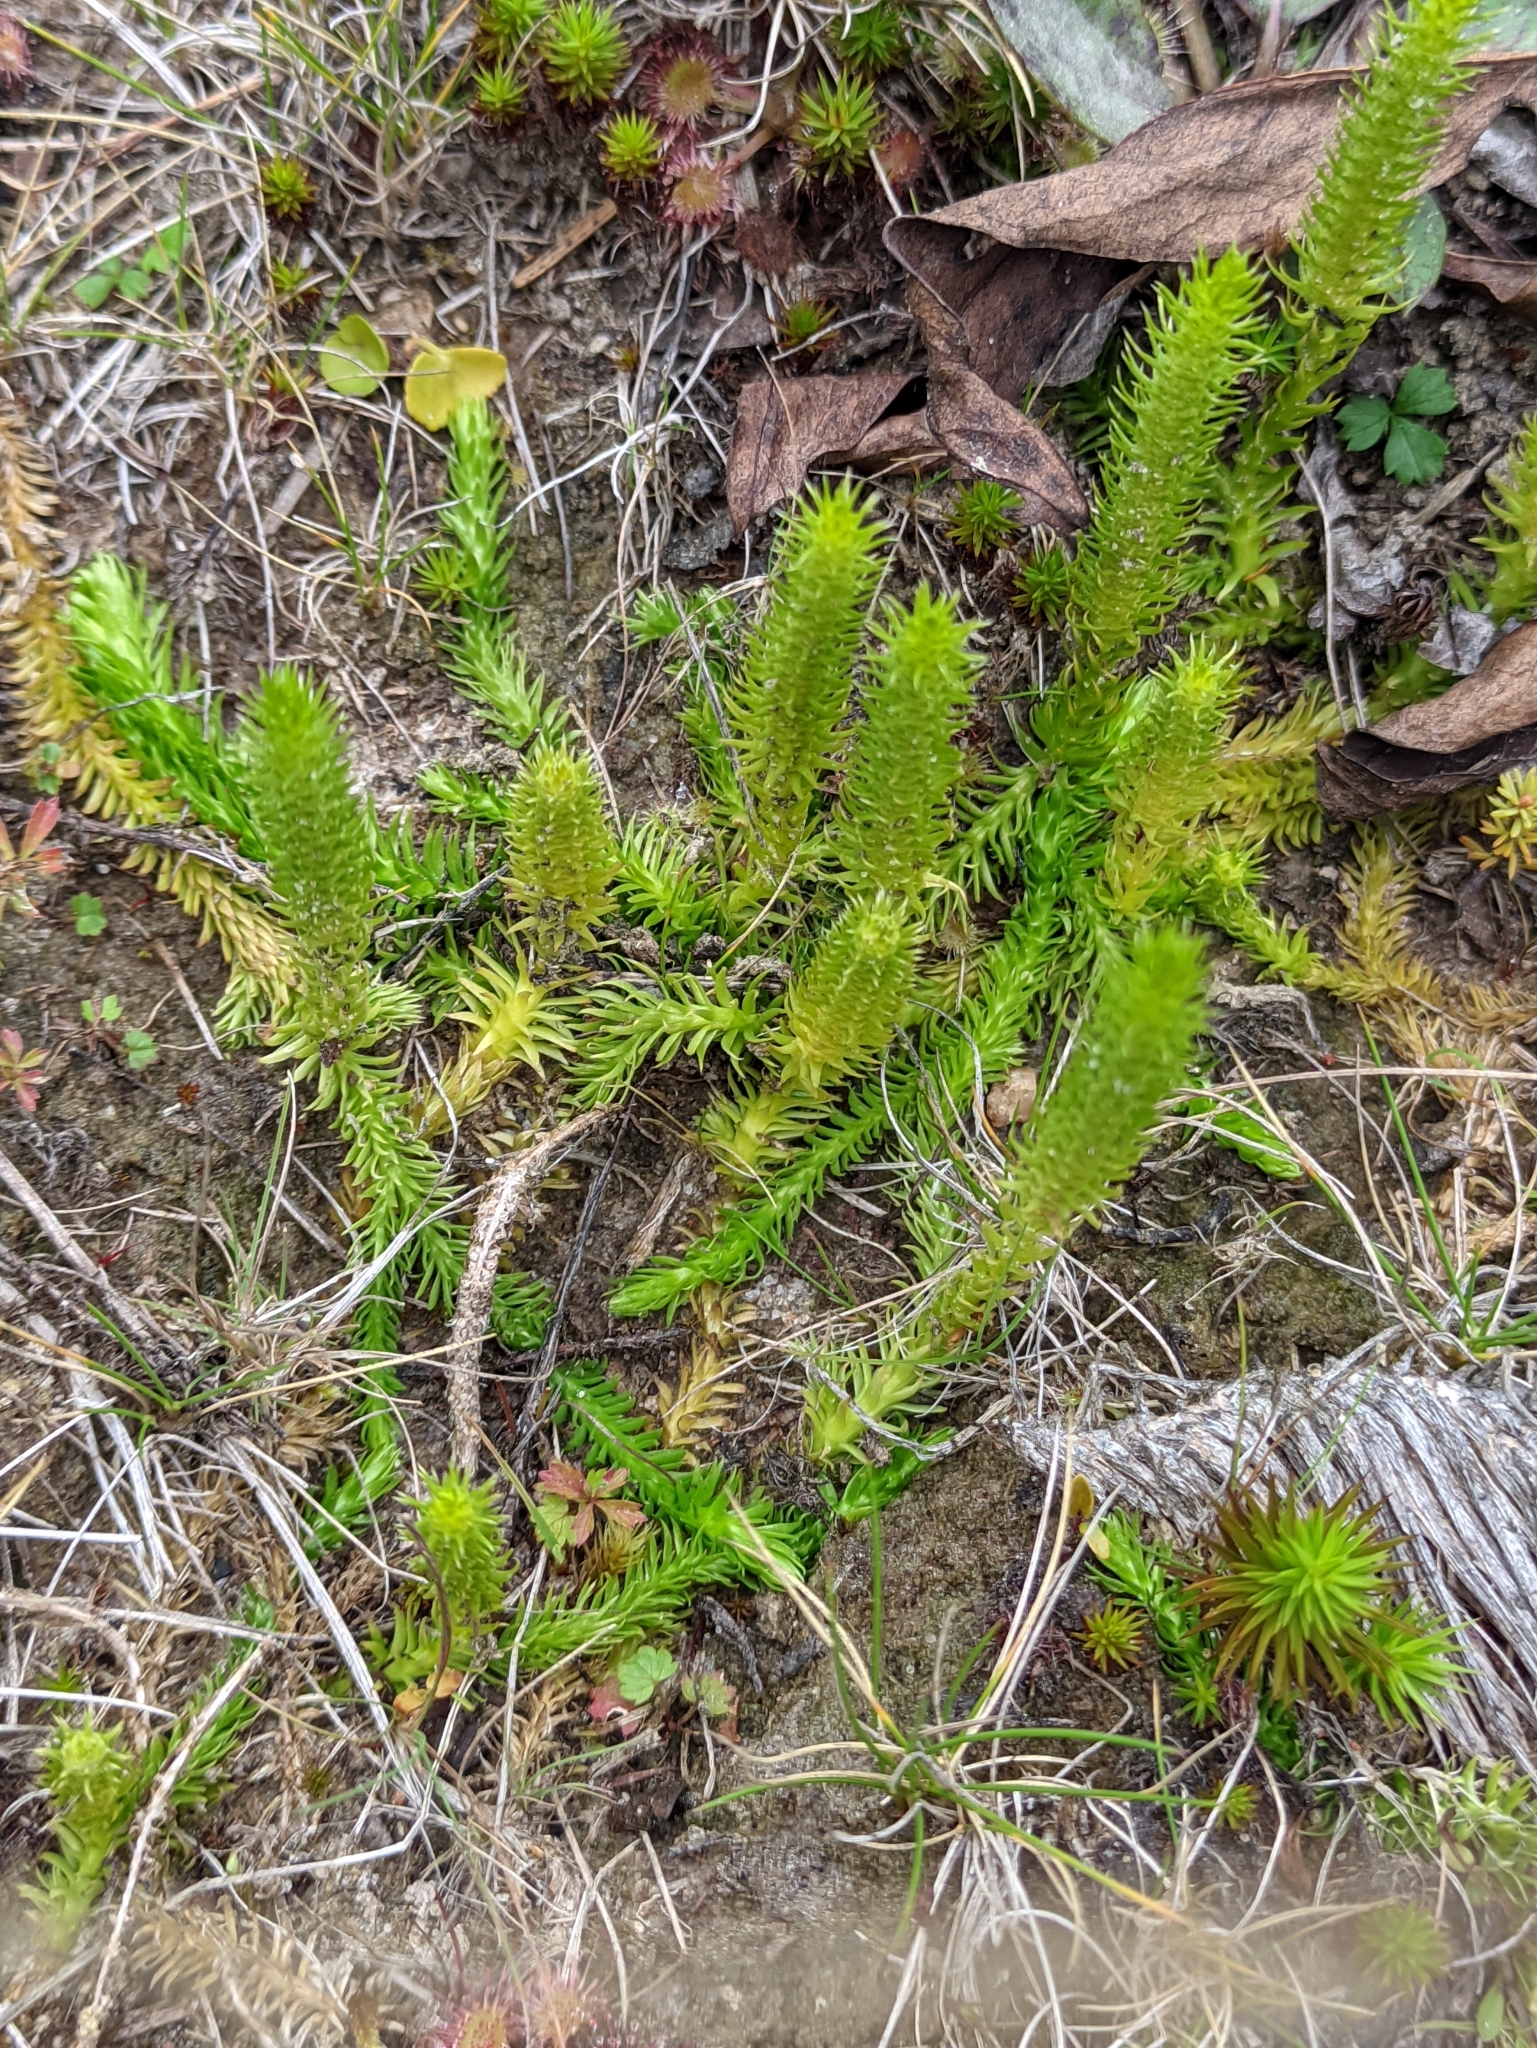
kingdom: Plantae
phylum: Tracheophyta
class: Lycopodiopsida
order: Lycopodiales
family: Lycopodiaceae
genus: Lycopodiella
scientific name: Lycopodiella inundata
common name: Marsh clubmoss
